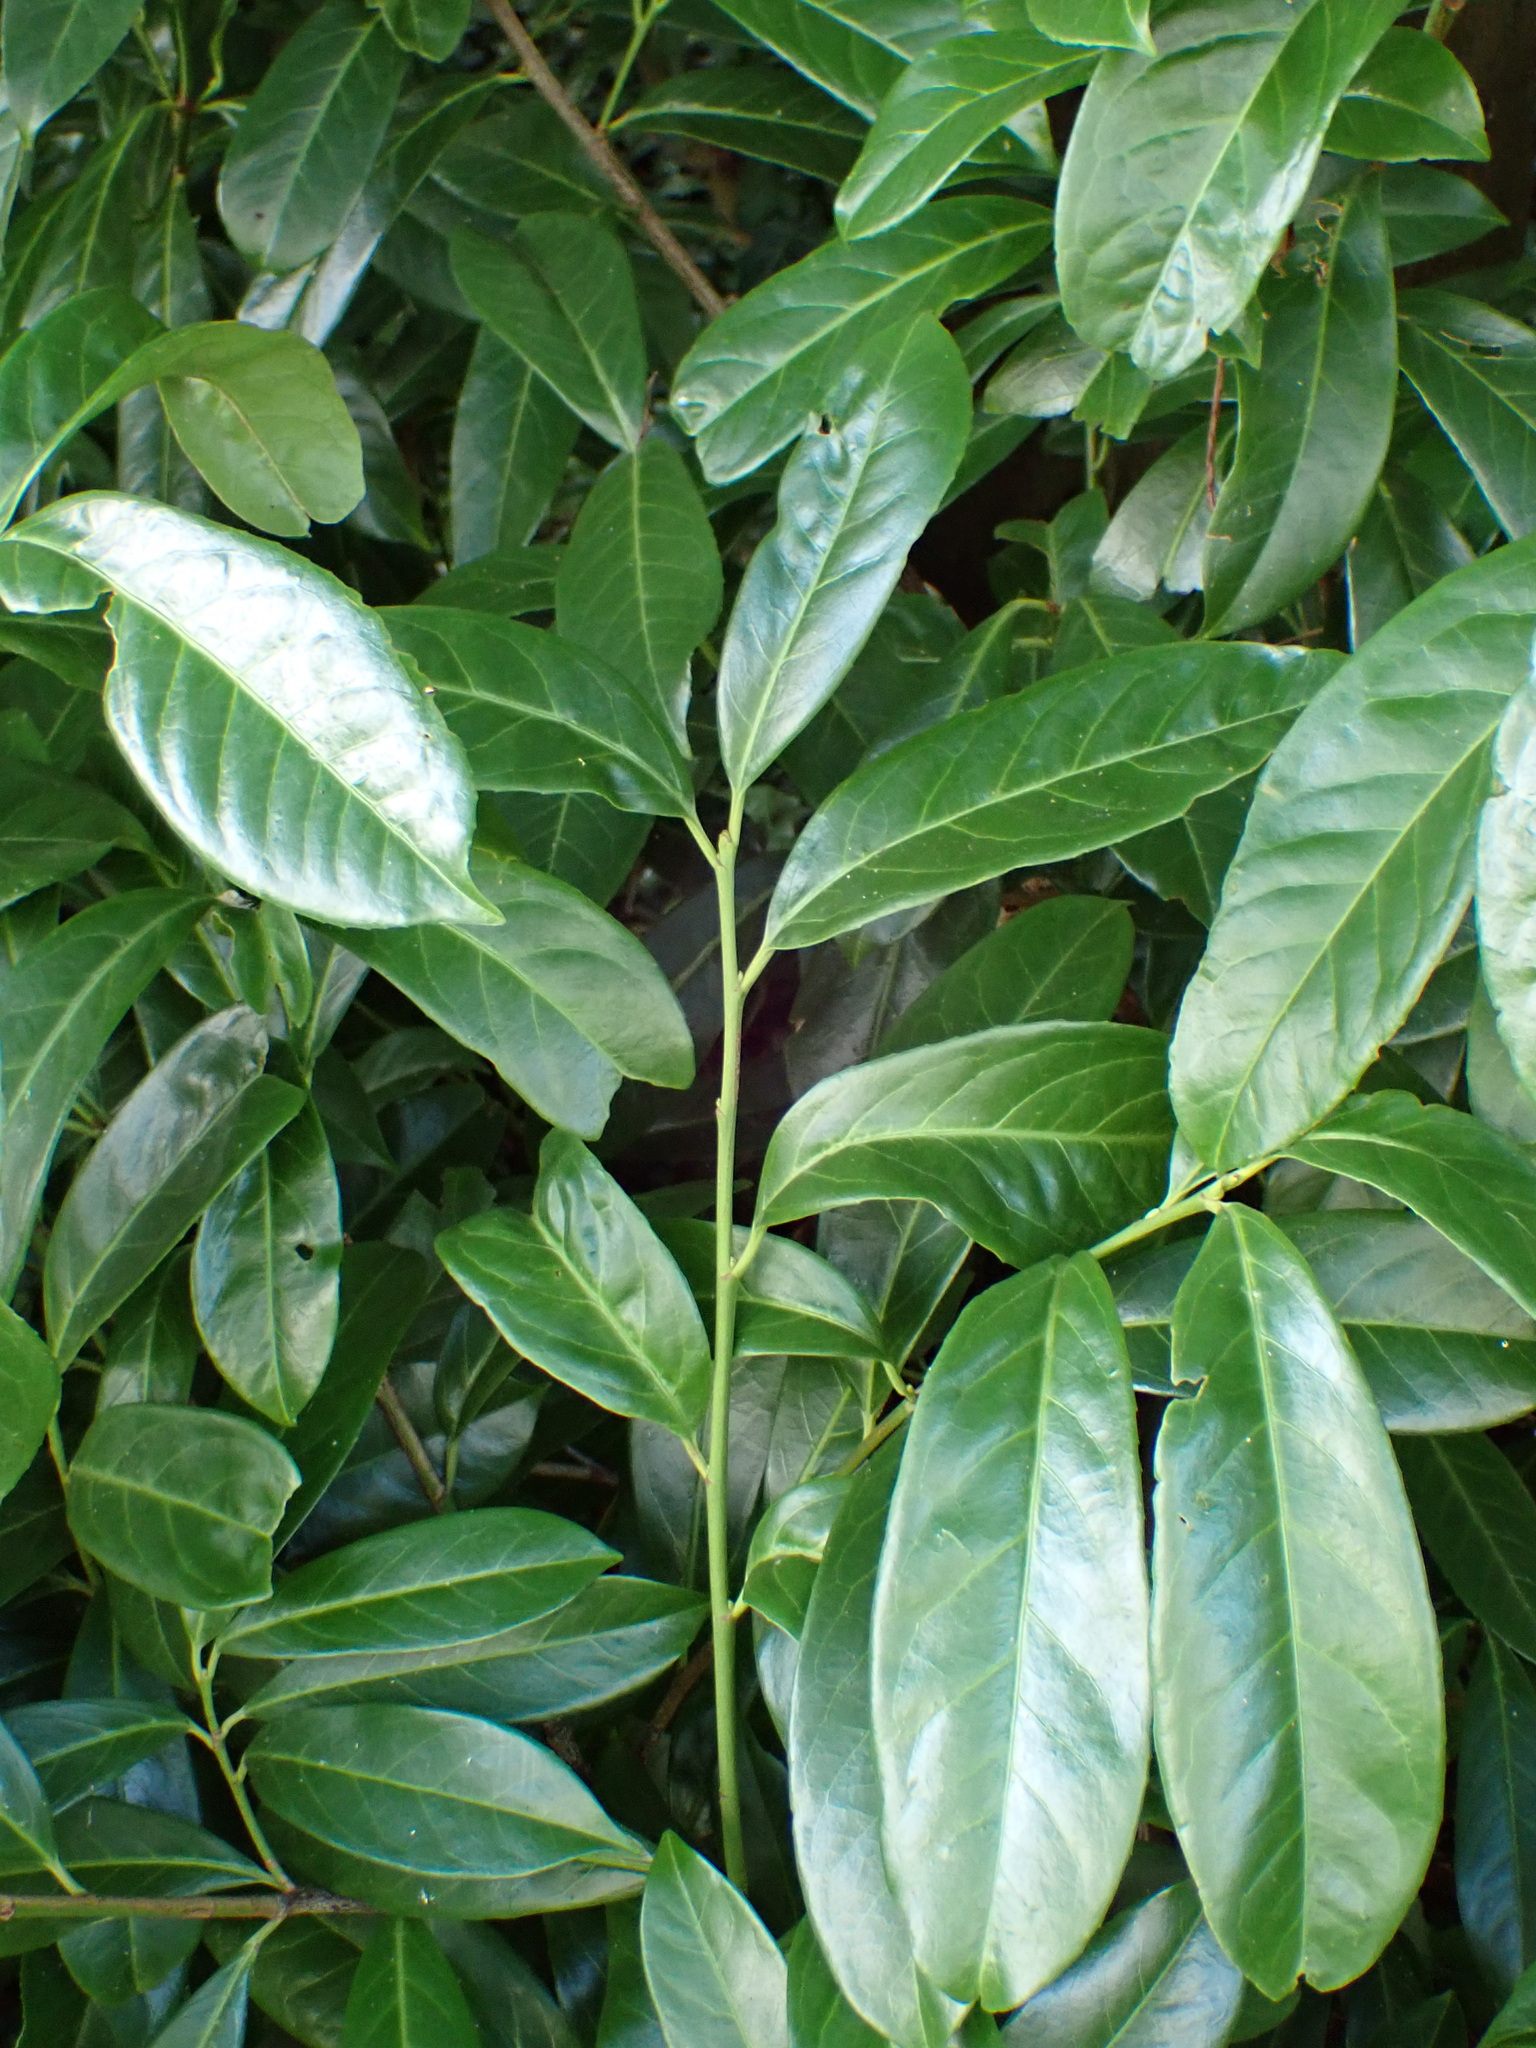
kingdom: Plantae
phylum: Tracheophyta
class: Magnoliopsida
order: Rosales
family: Rosaceae
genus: Prunus
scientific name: Prunus laurocerasus
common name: Cherry laurel
